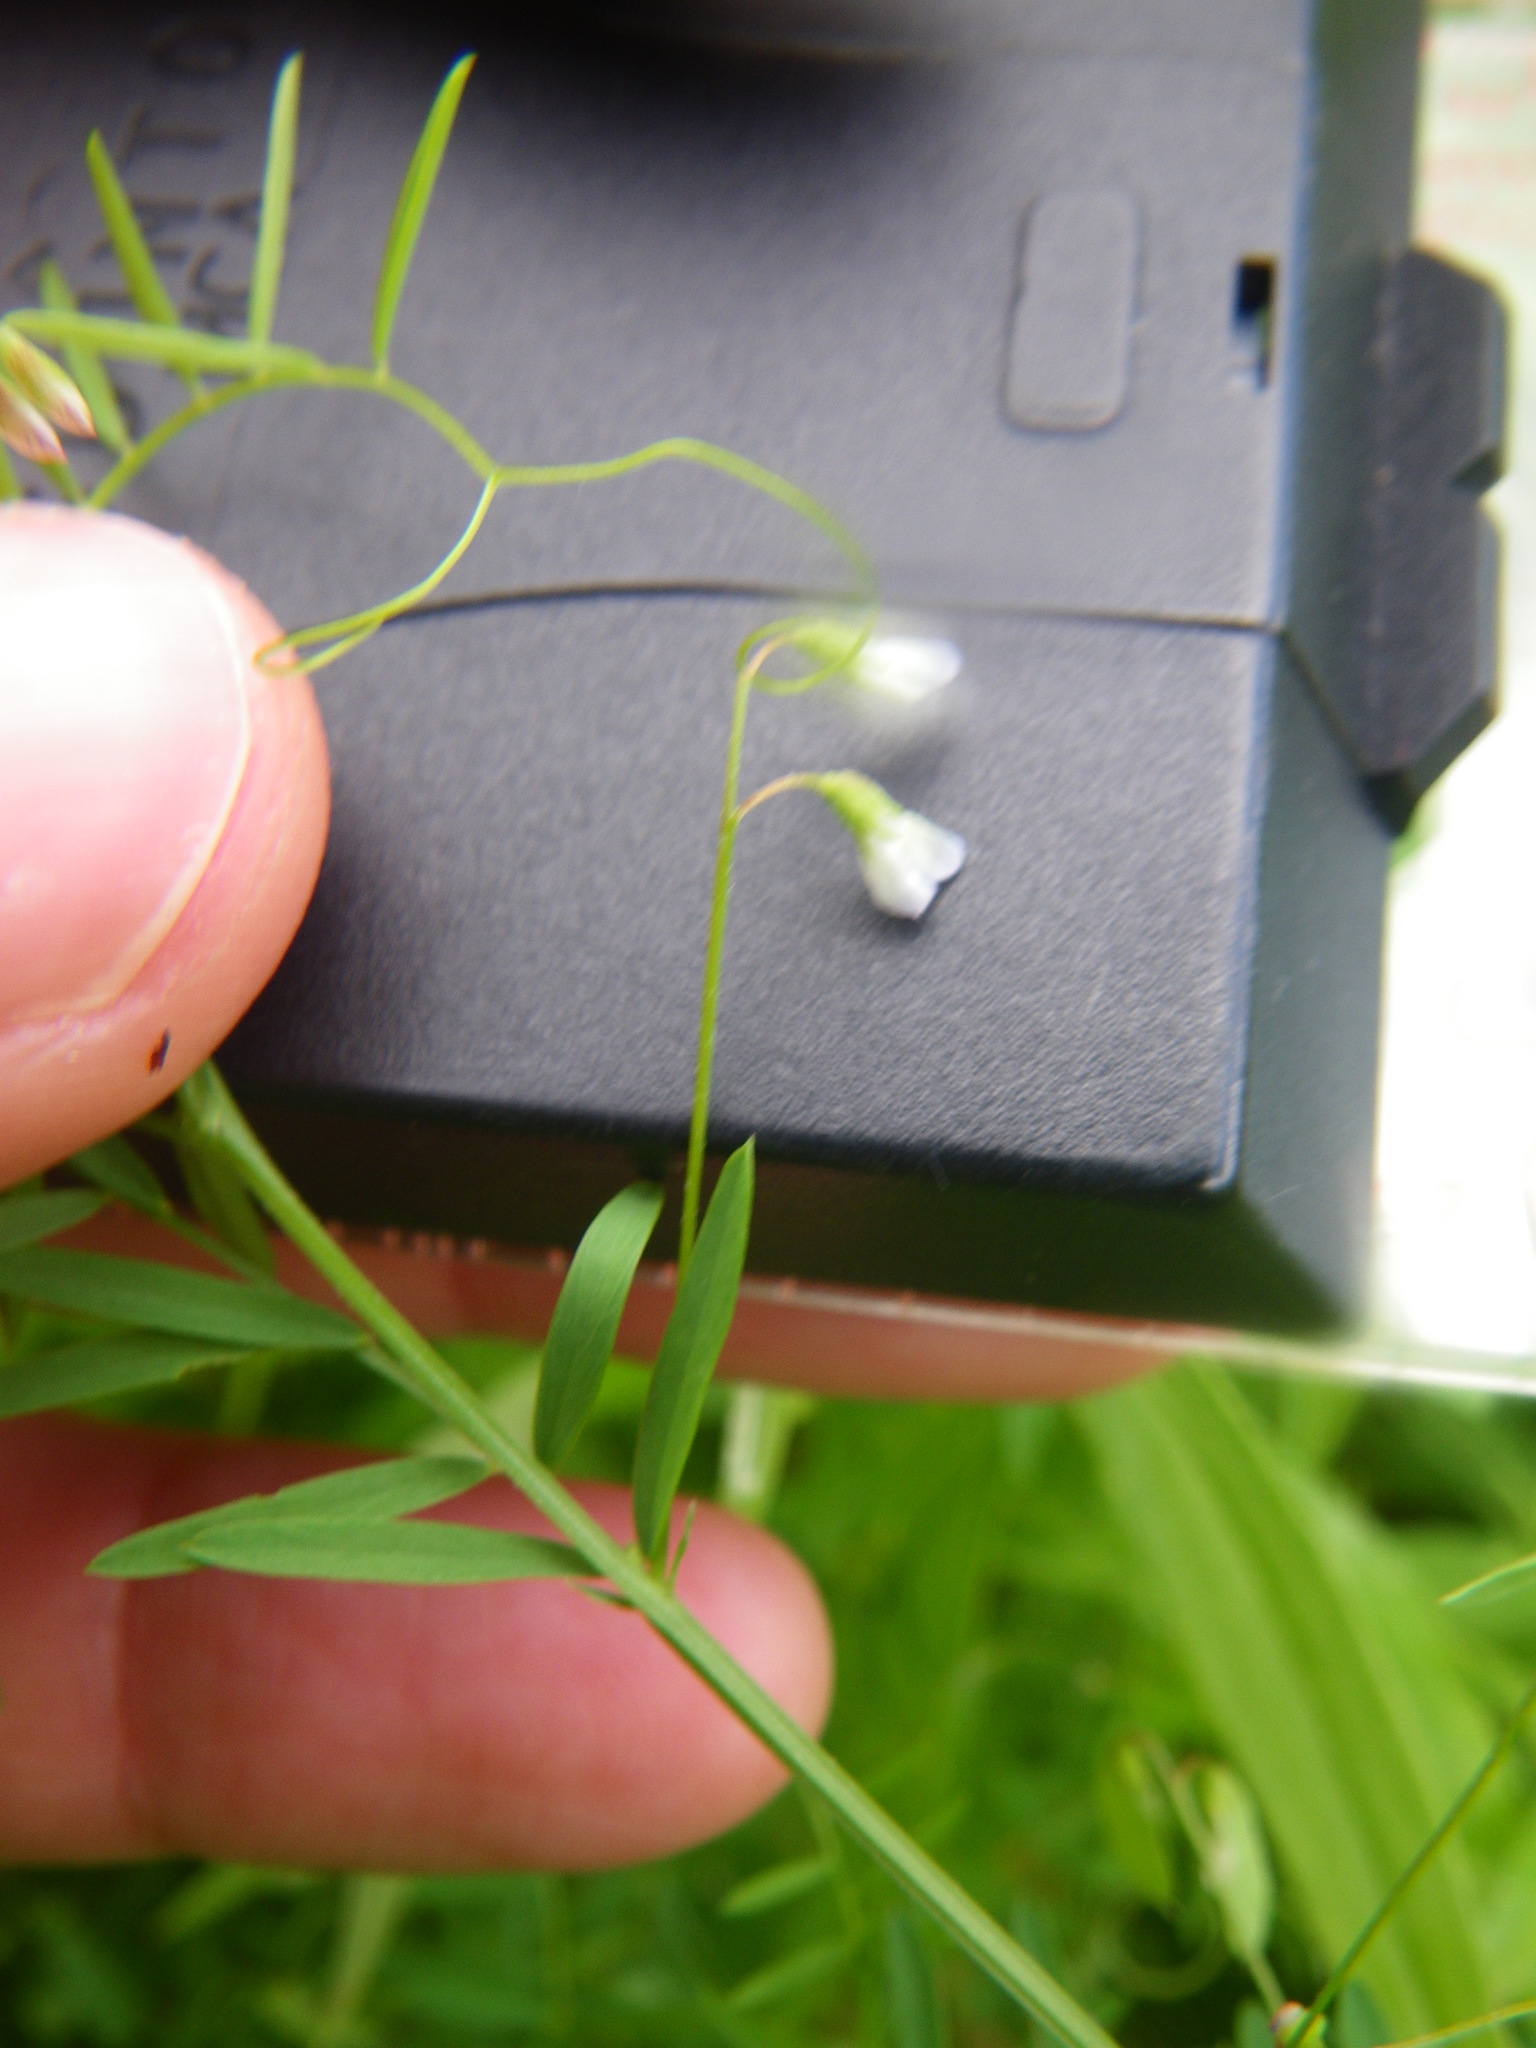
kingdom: Plantae
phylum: Tracheophyta
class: Magnoliopsida
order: Fabales
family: Fabaceae
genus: Vicia
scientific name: Vicia tetrasperma
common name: Smooth tare
